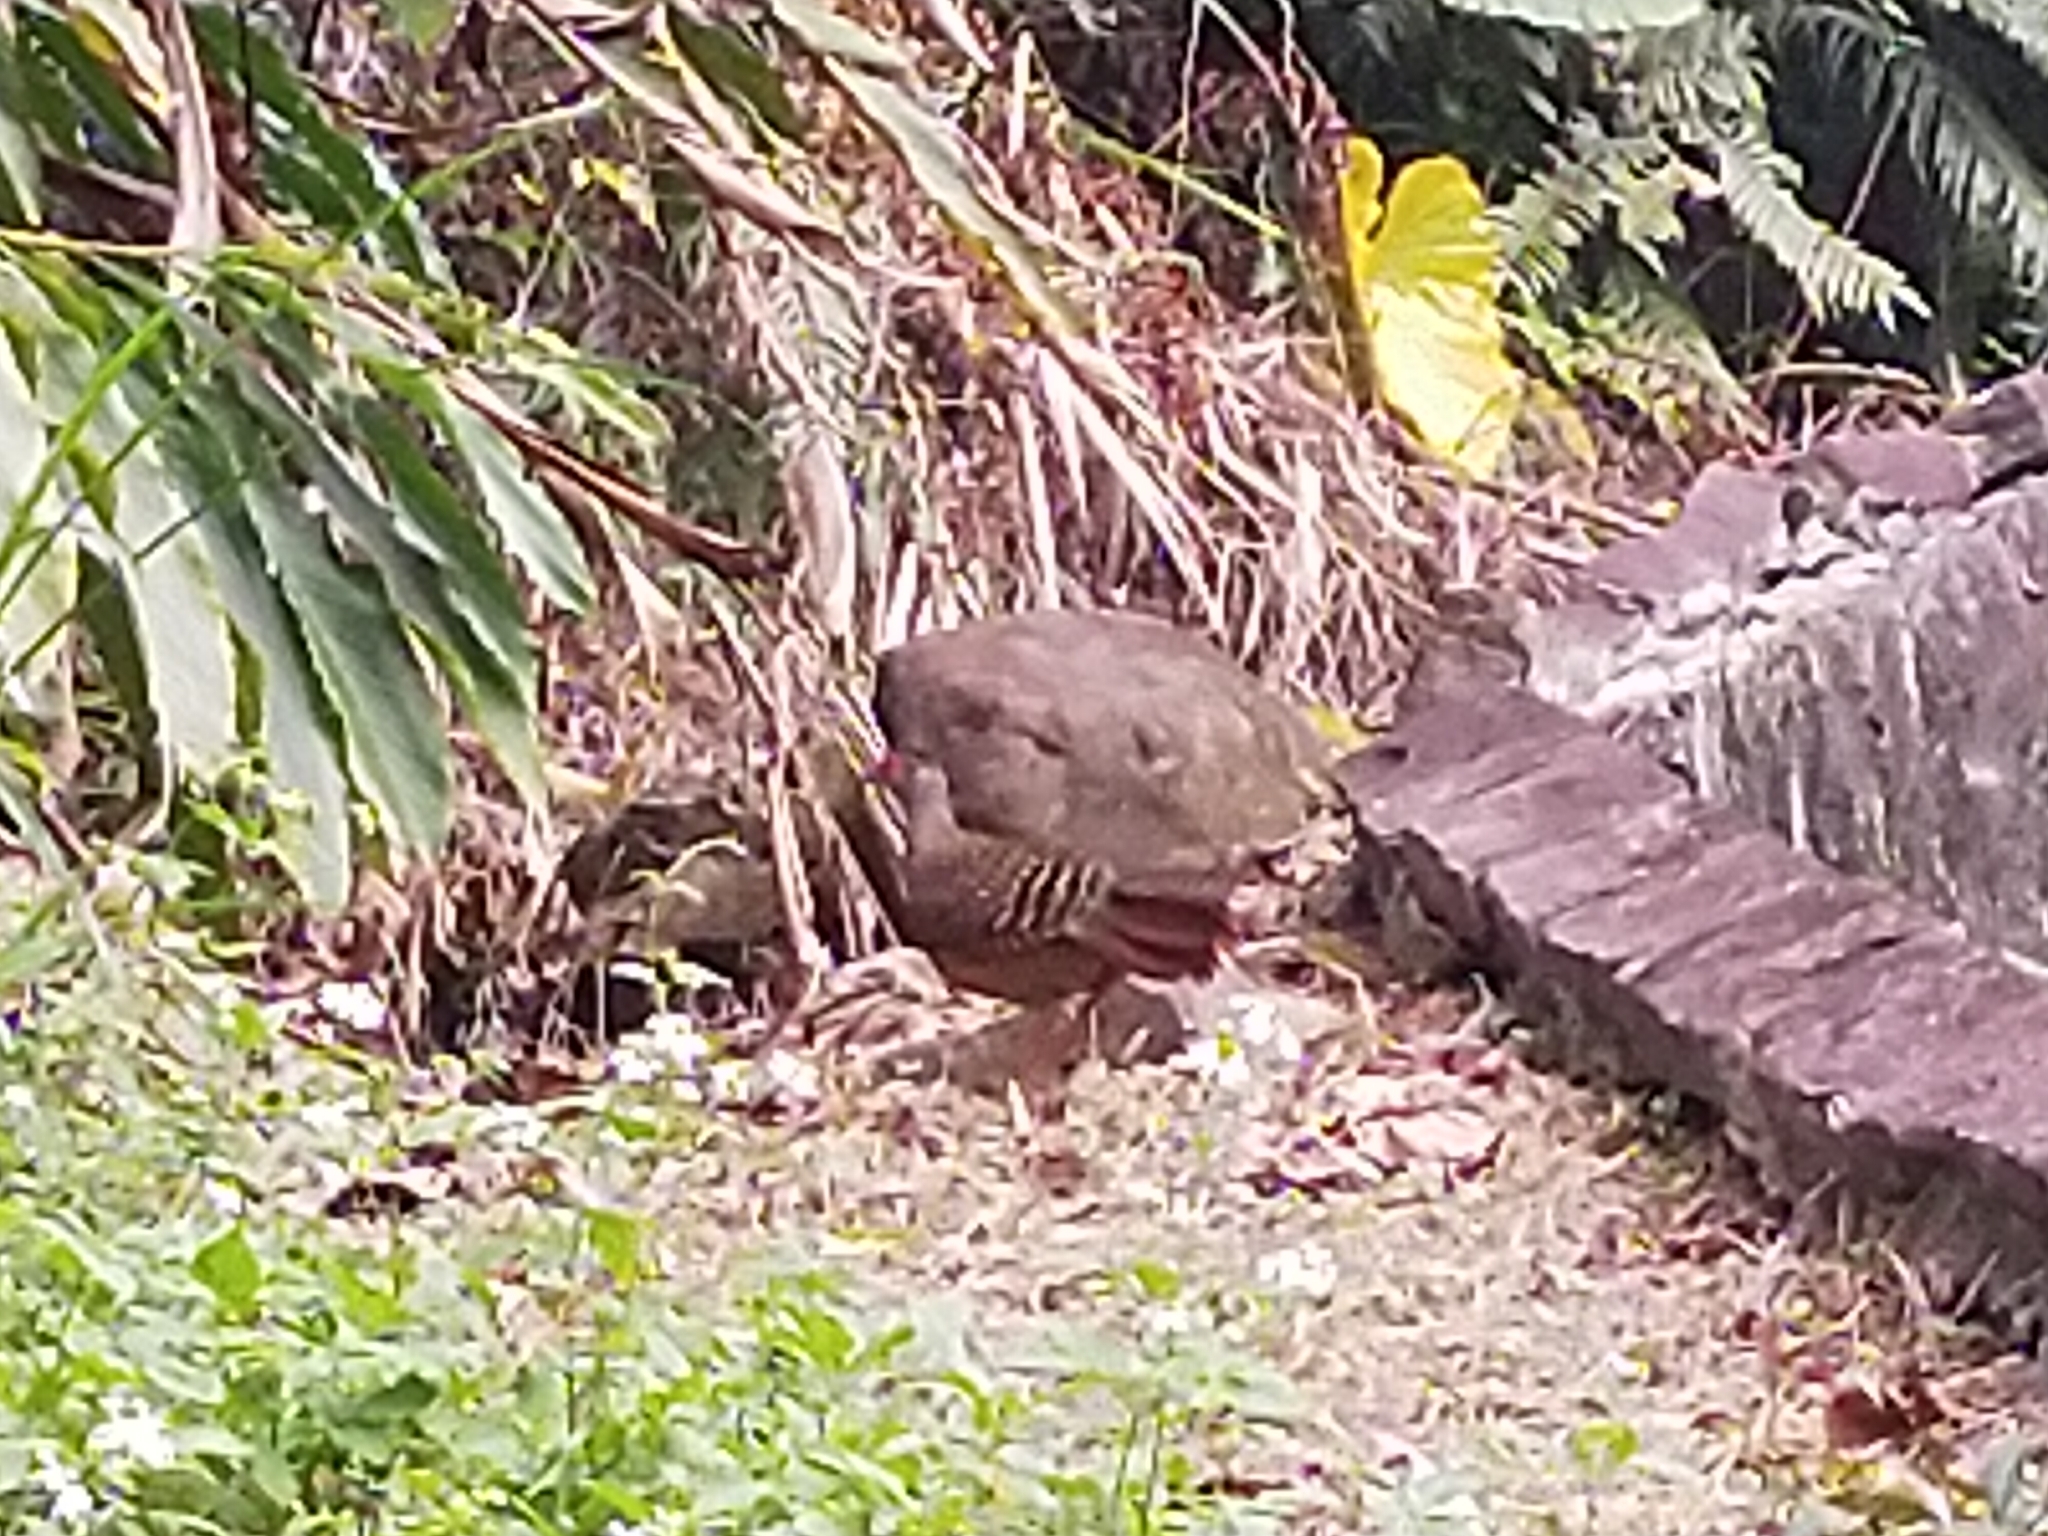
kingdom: Animalia
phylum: Chordata
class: Aves
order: Galliformes
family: Phasianidae
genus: Lophura
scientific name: Lophura swinhoii
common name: Swinhoe's pheasant
